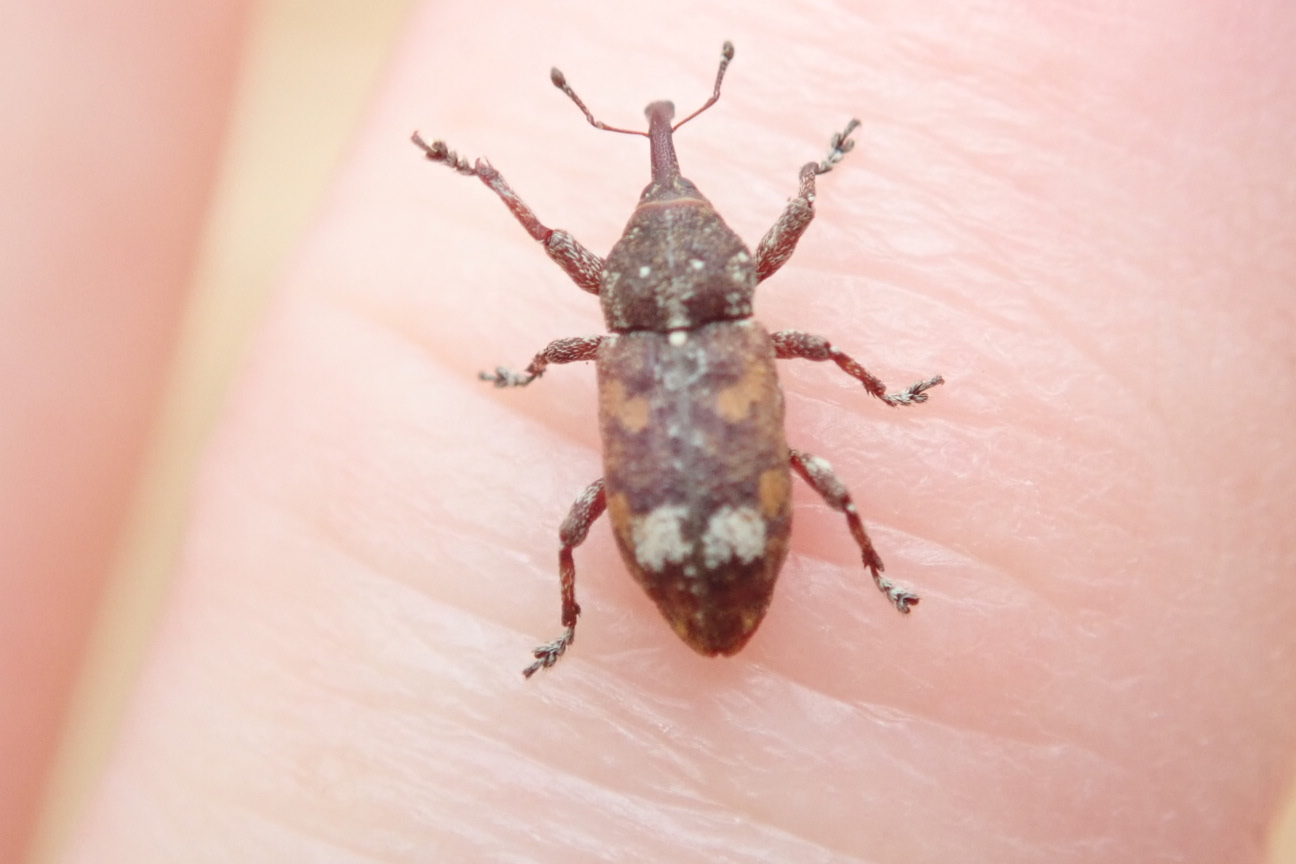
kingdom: Animalia
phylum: Arthropoda
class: Insecta
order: Coleoptera
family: Curculionidae
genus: Pissodes
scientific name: Pissodes strobi
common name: White pine weevil
